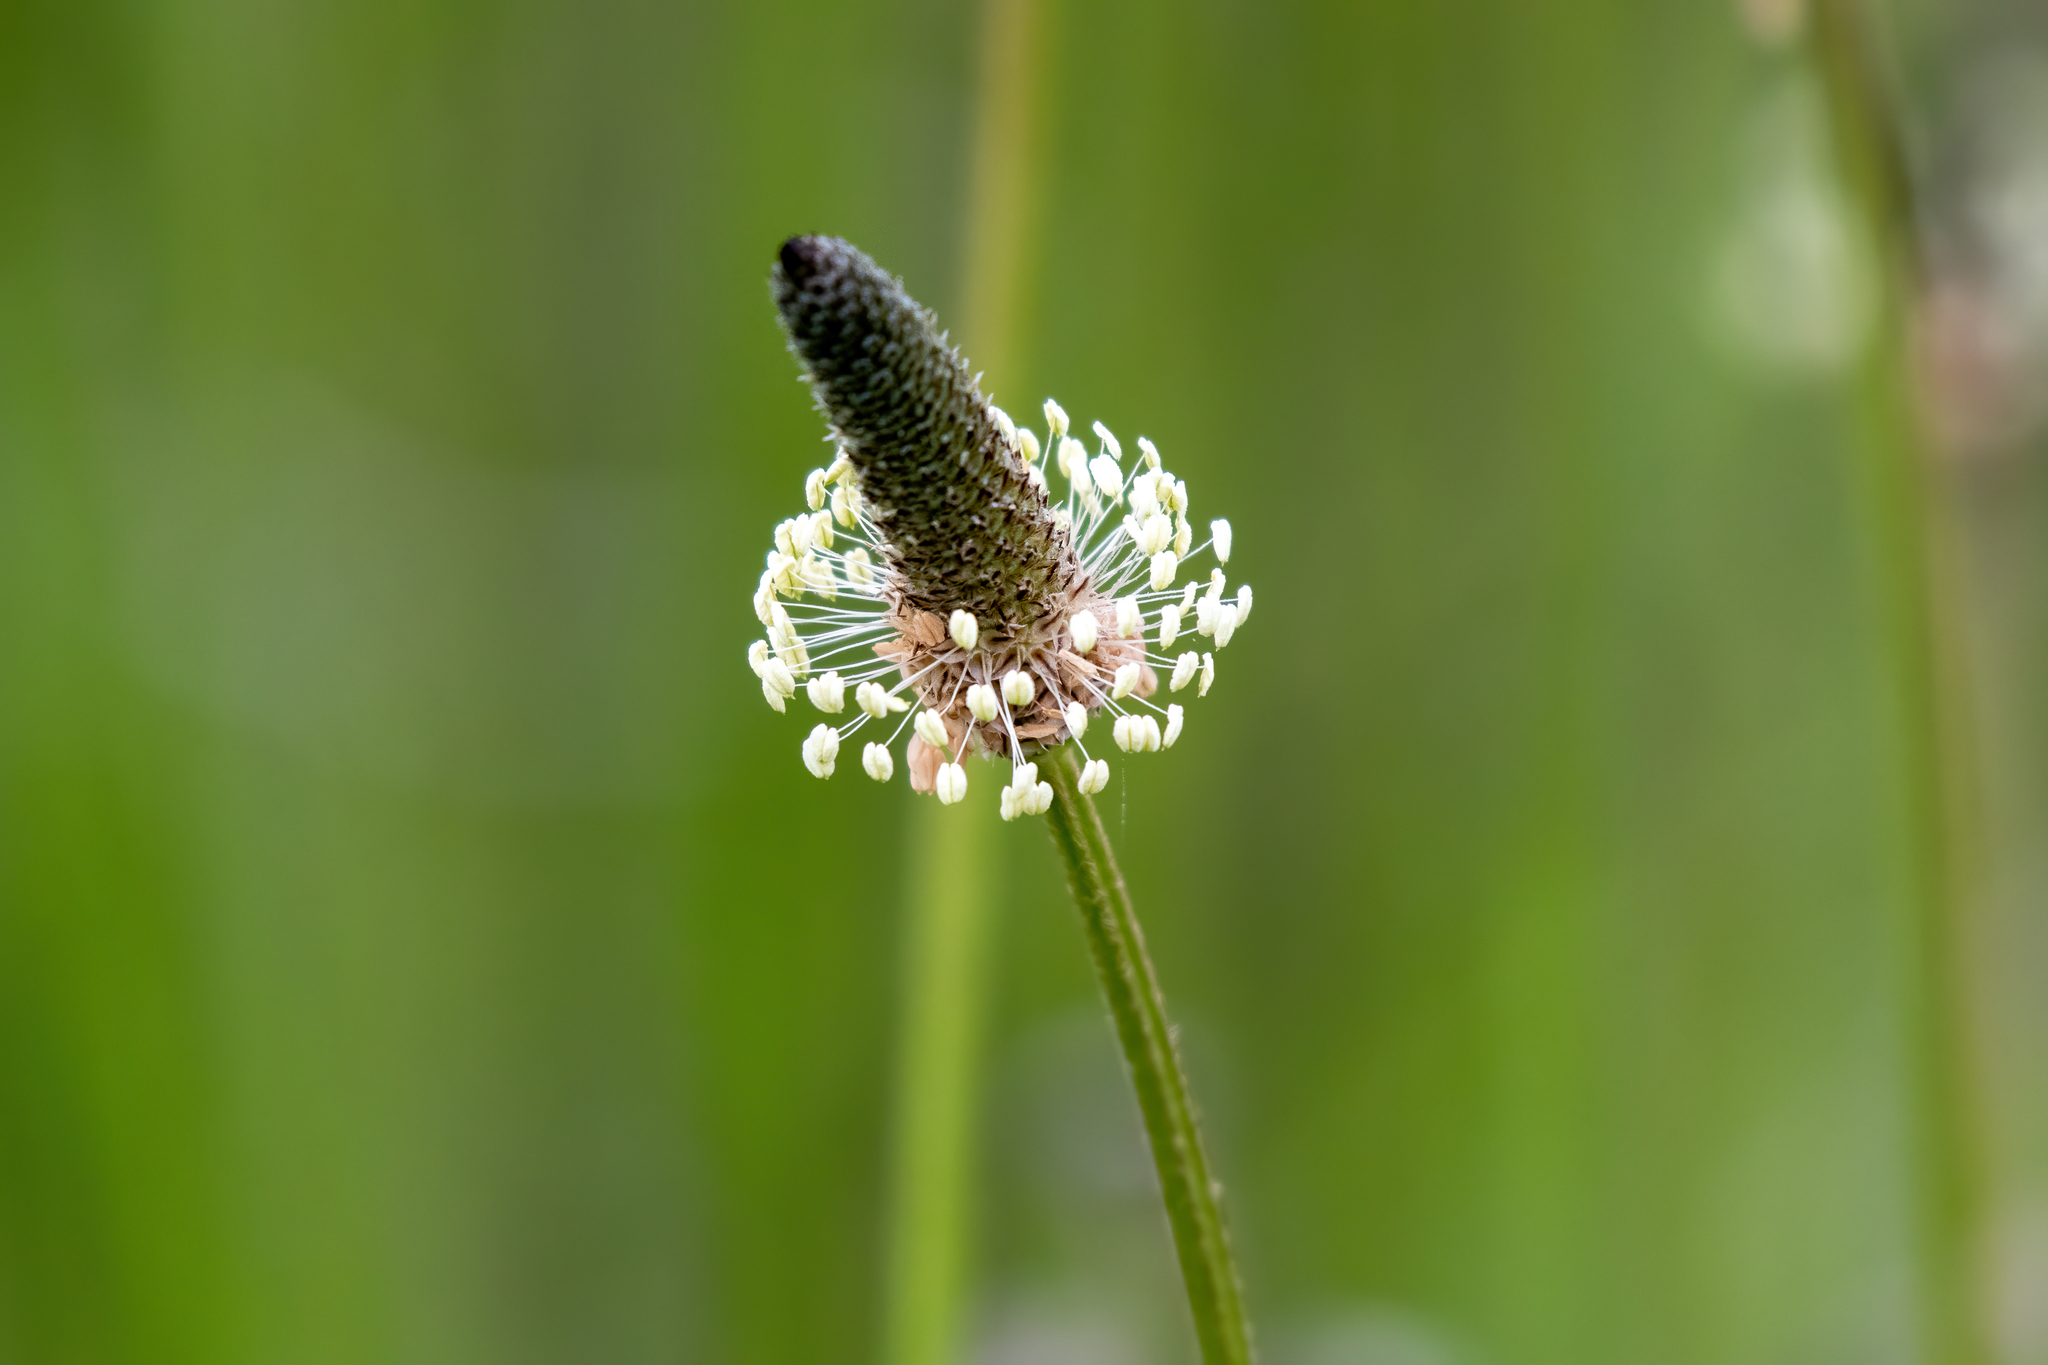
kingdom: Plantae
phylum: Tracheophyta
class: Magnoliopsida
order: Lamiales
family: Plantaginaceae
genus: Plantago
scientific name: Plantago lanceolata
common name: Ribwort plantain
